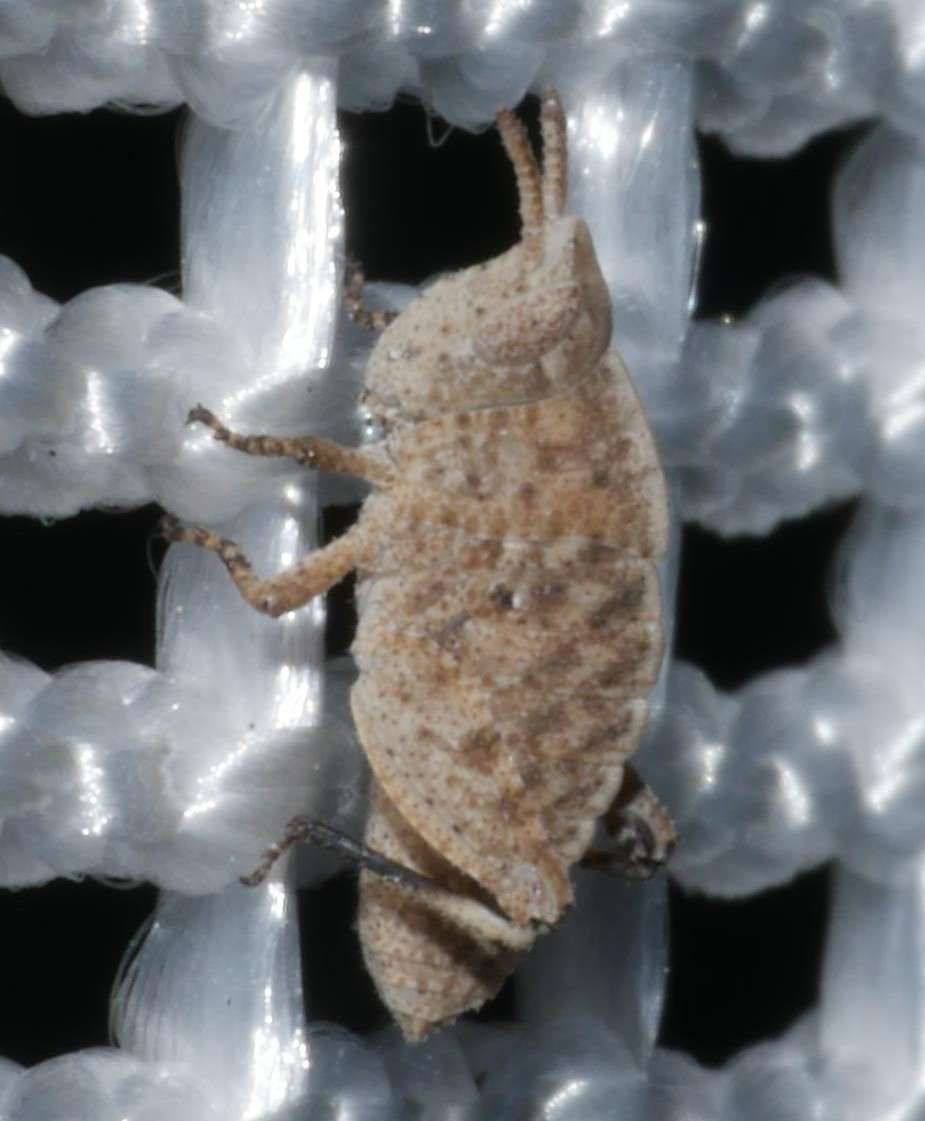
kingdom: Animalia
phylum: Arthropoda
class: Insecta
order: Orthoptera
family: Acrididae
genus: Goniaea
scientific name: Goniaea australasiae
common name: Gumleaf grasshopper
